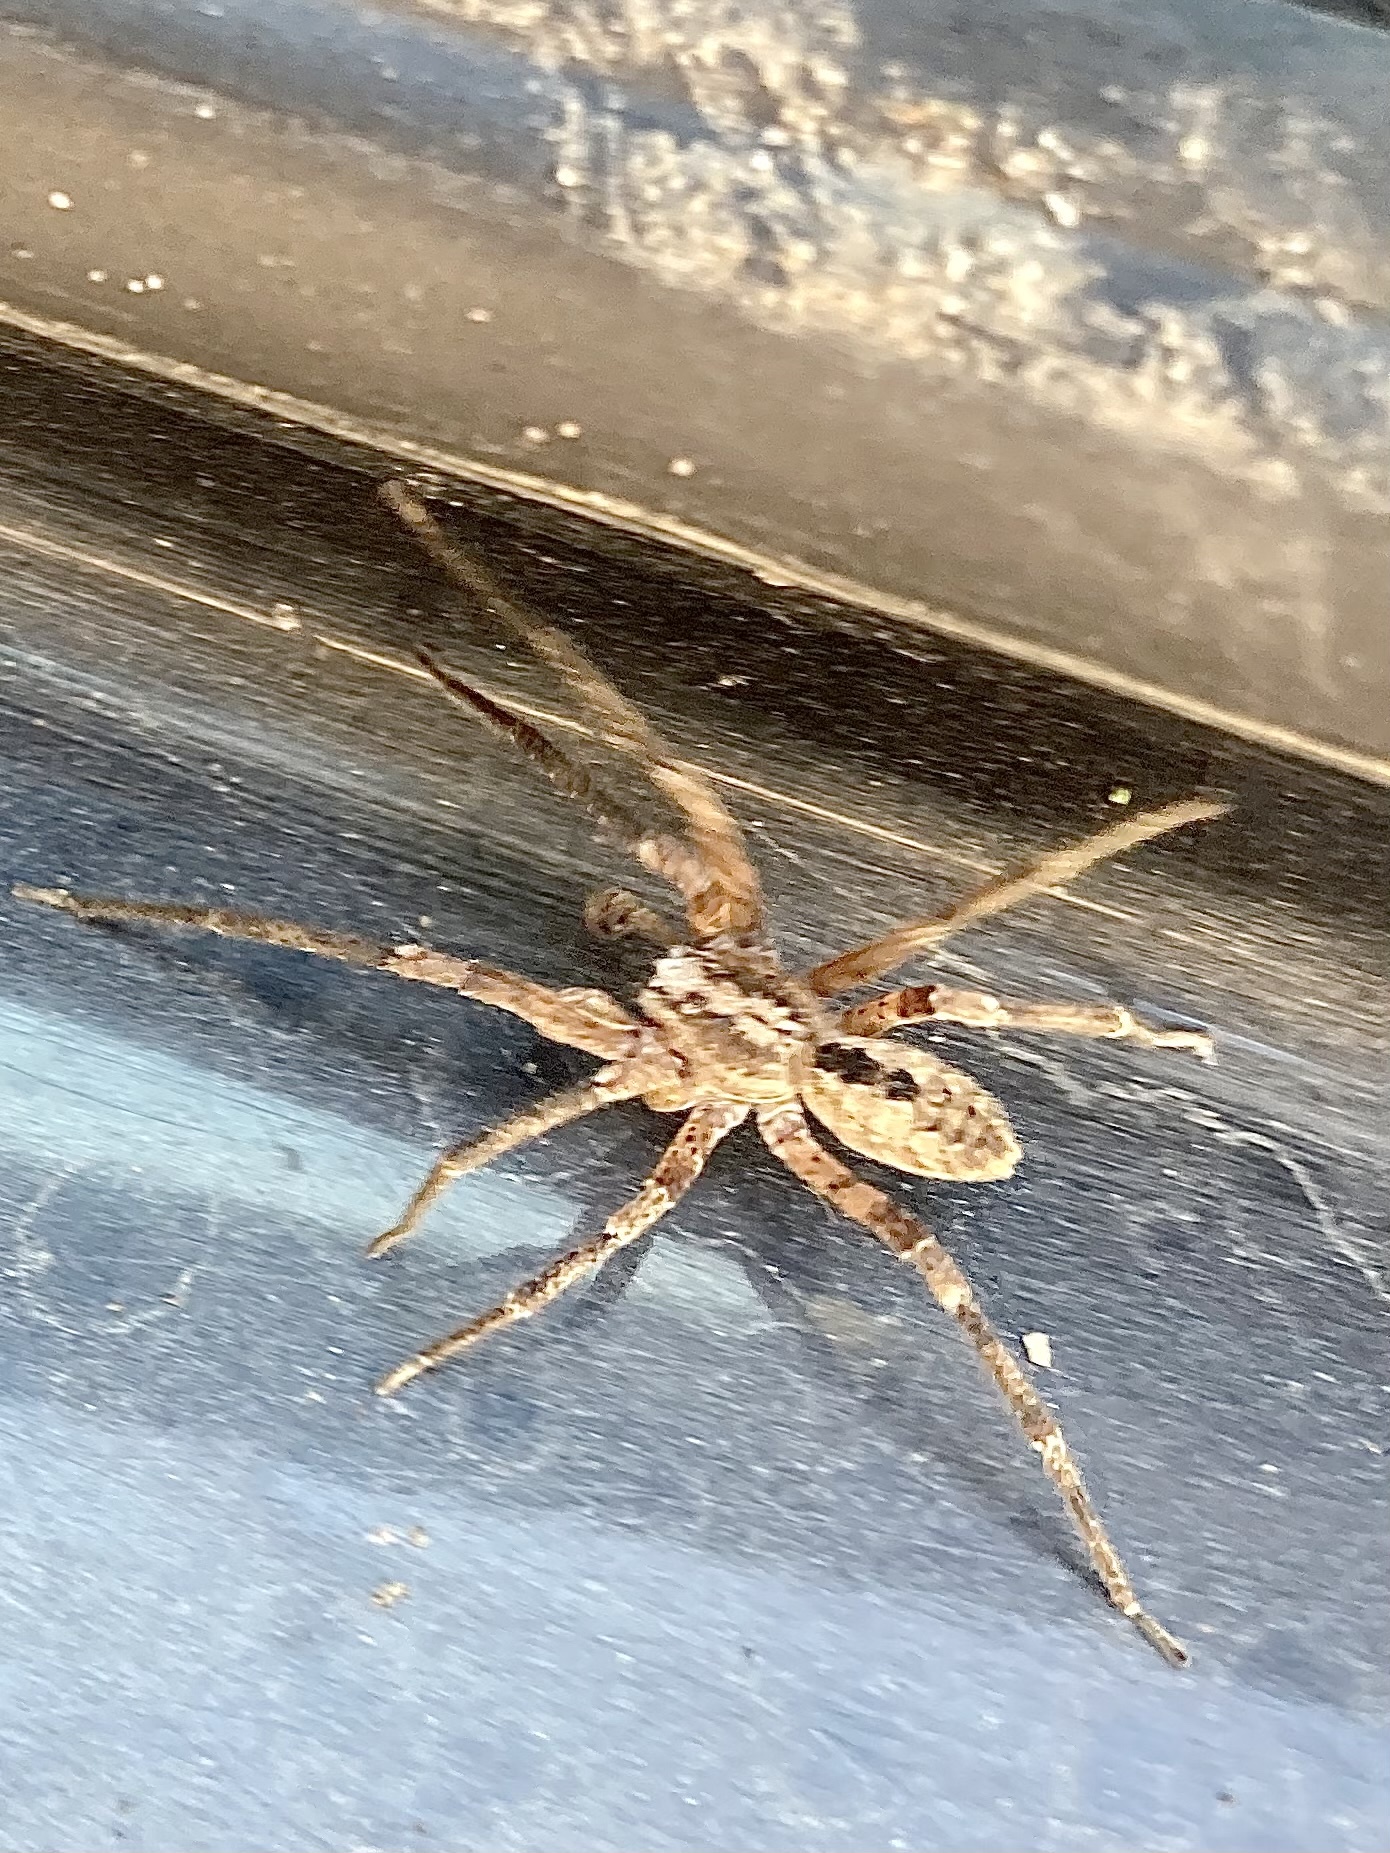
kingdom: Animalia
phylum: Arthropoda
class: Arachnida
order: Araneae
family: Zoropsidae
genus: Zoropsis
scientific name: Zoropsis spinimana
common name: Zoropsid spider
